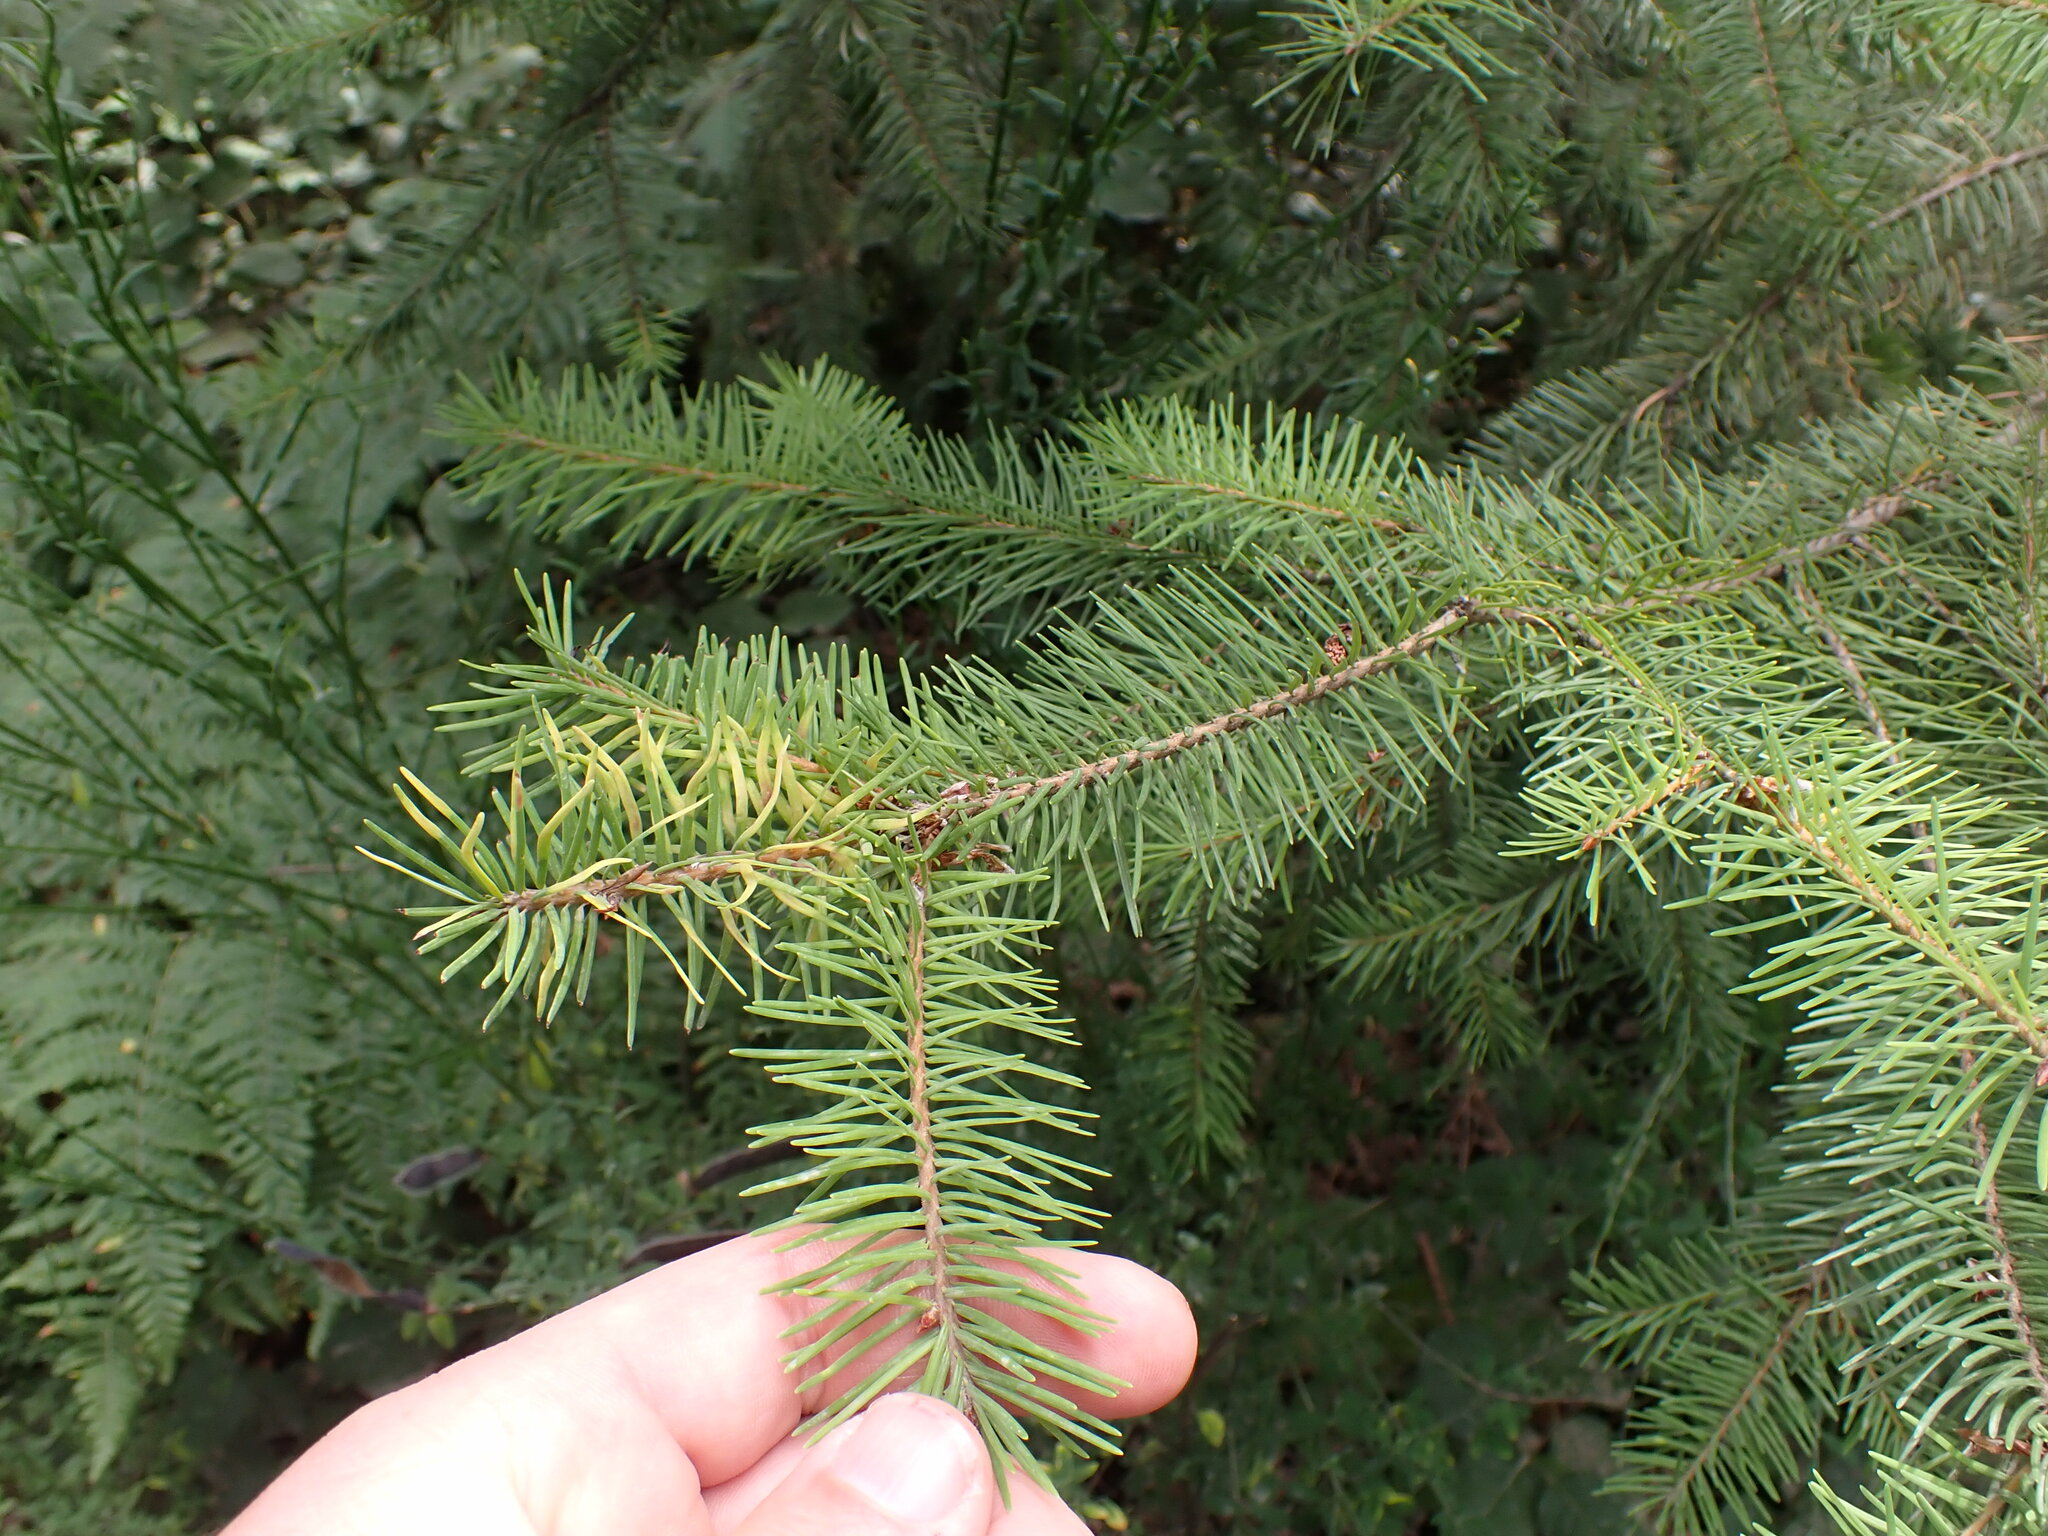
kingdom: Plantae
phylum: Tracheophyta
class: Pinopsida
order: Pinales
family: Pinaceae
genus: Pseudotsuga
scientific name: Pseudotsuga menziesii
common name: Douglas fir
